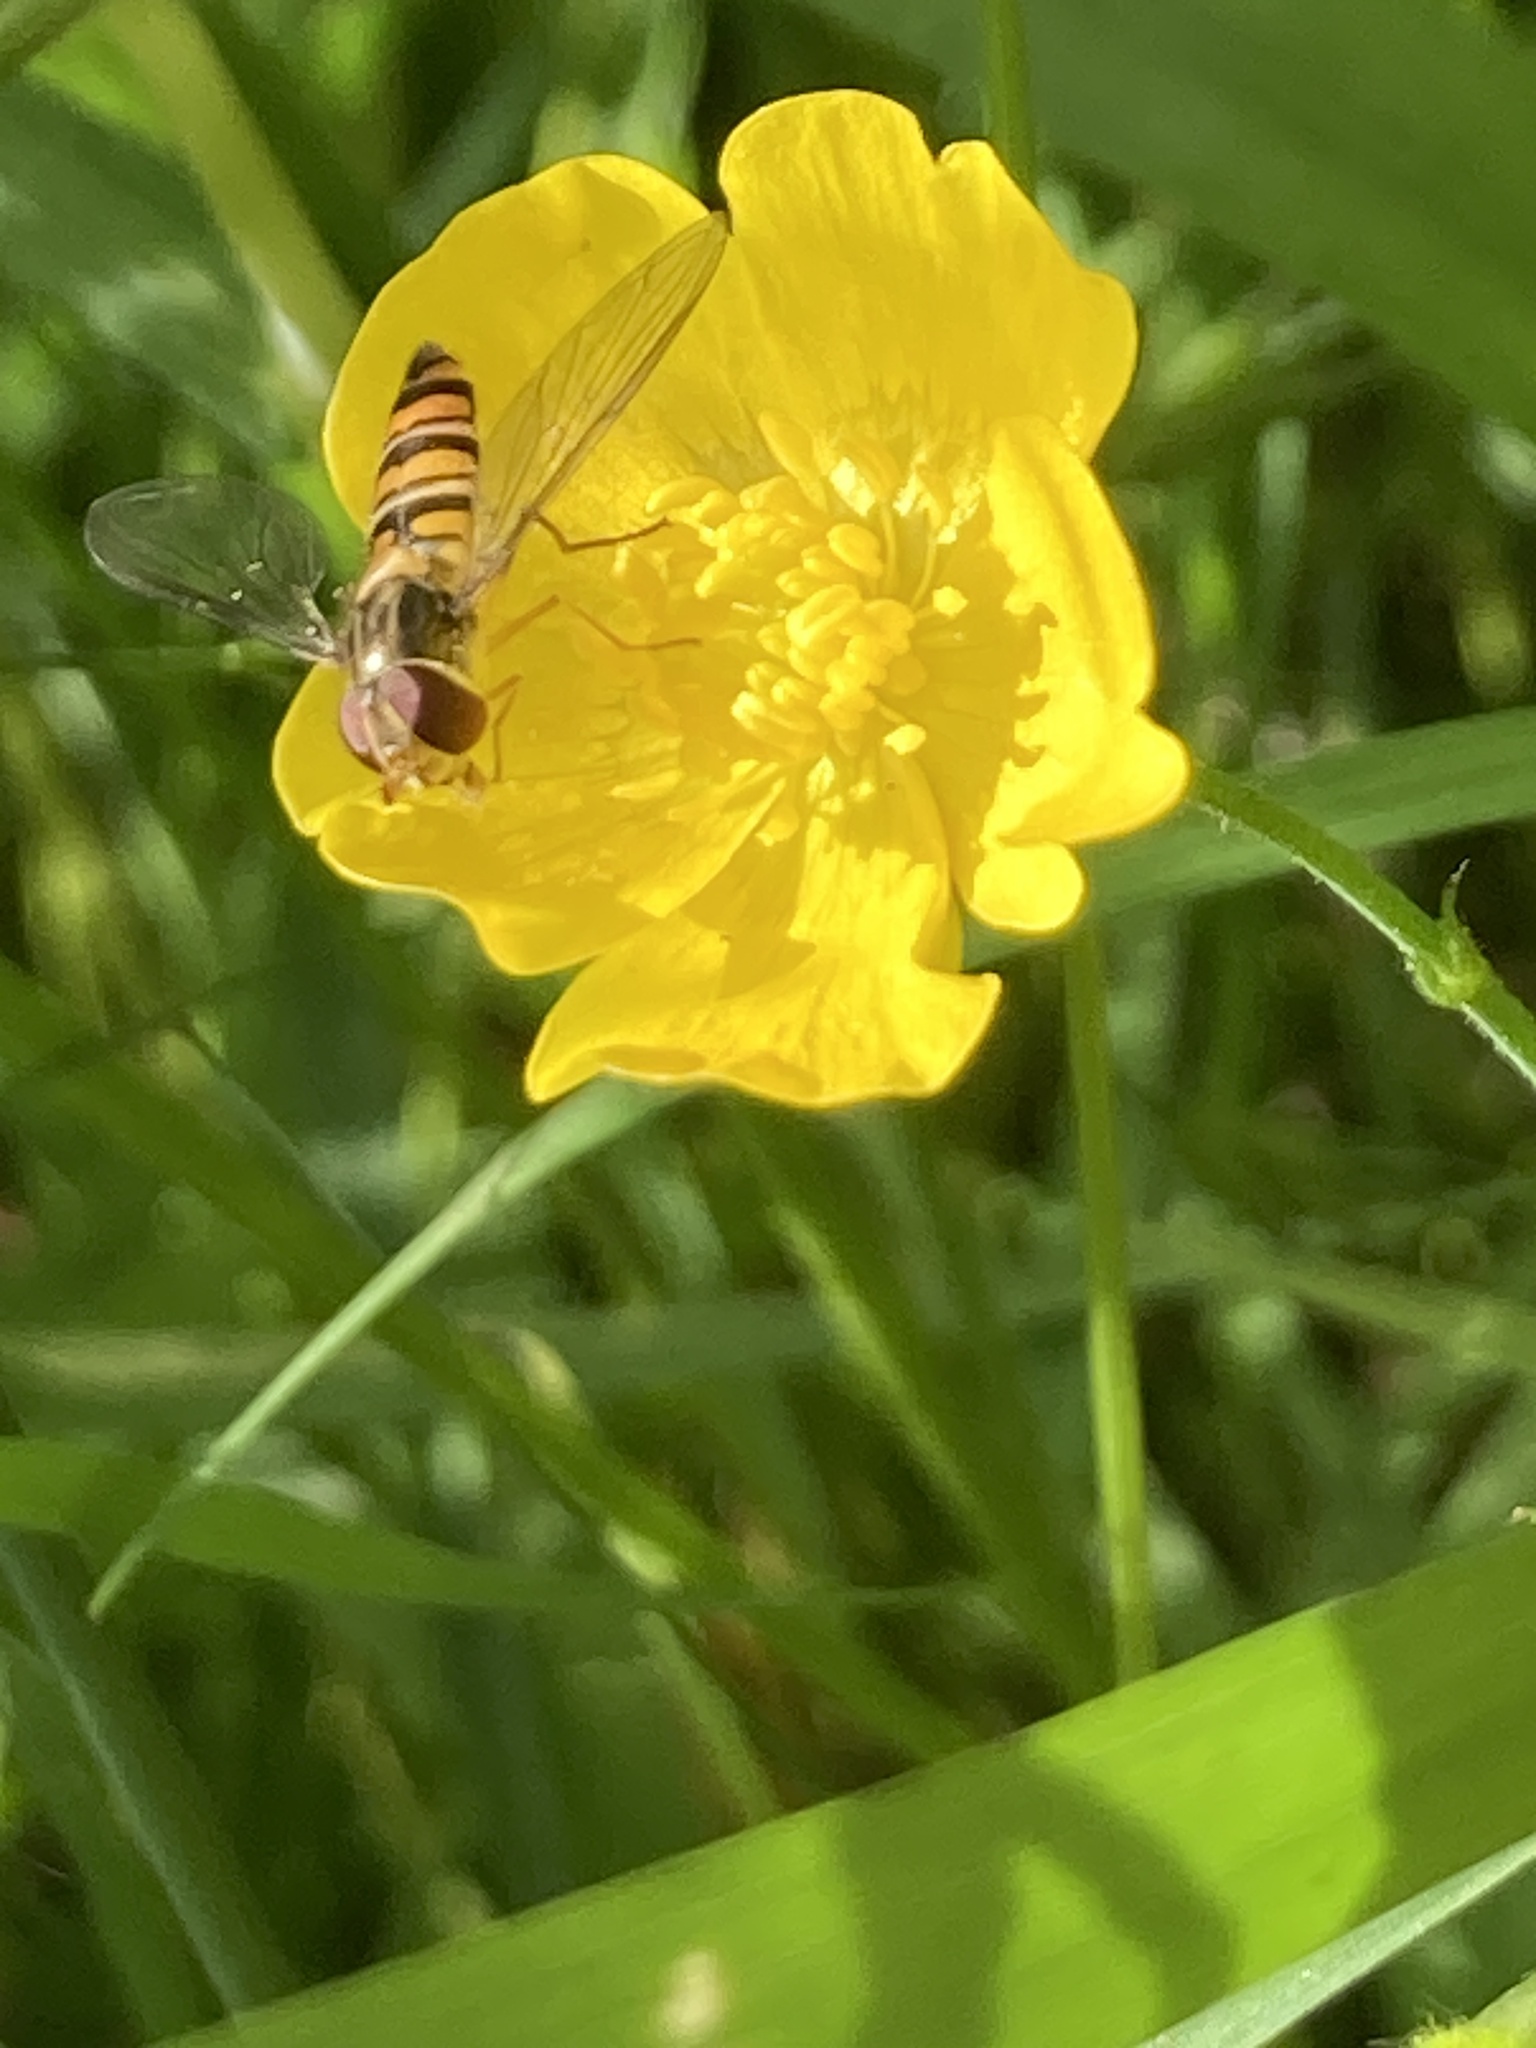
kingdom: Animalia
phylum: Arthropoda
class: Insecta
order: Diptera
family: Syrphidae
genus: Episyrphus
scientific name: Episyrphus balteatus
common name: Marmalade hoverfly
